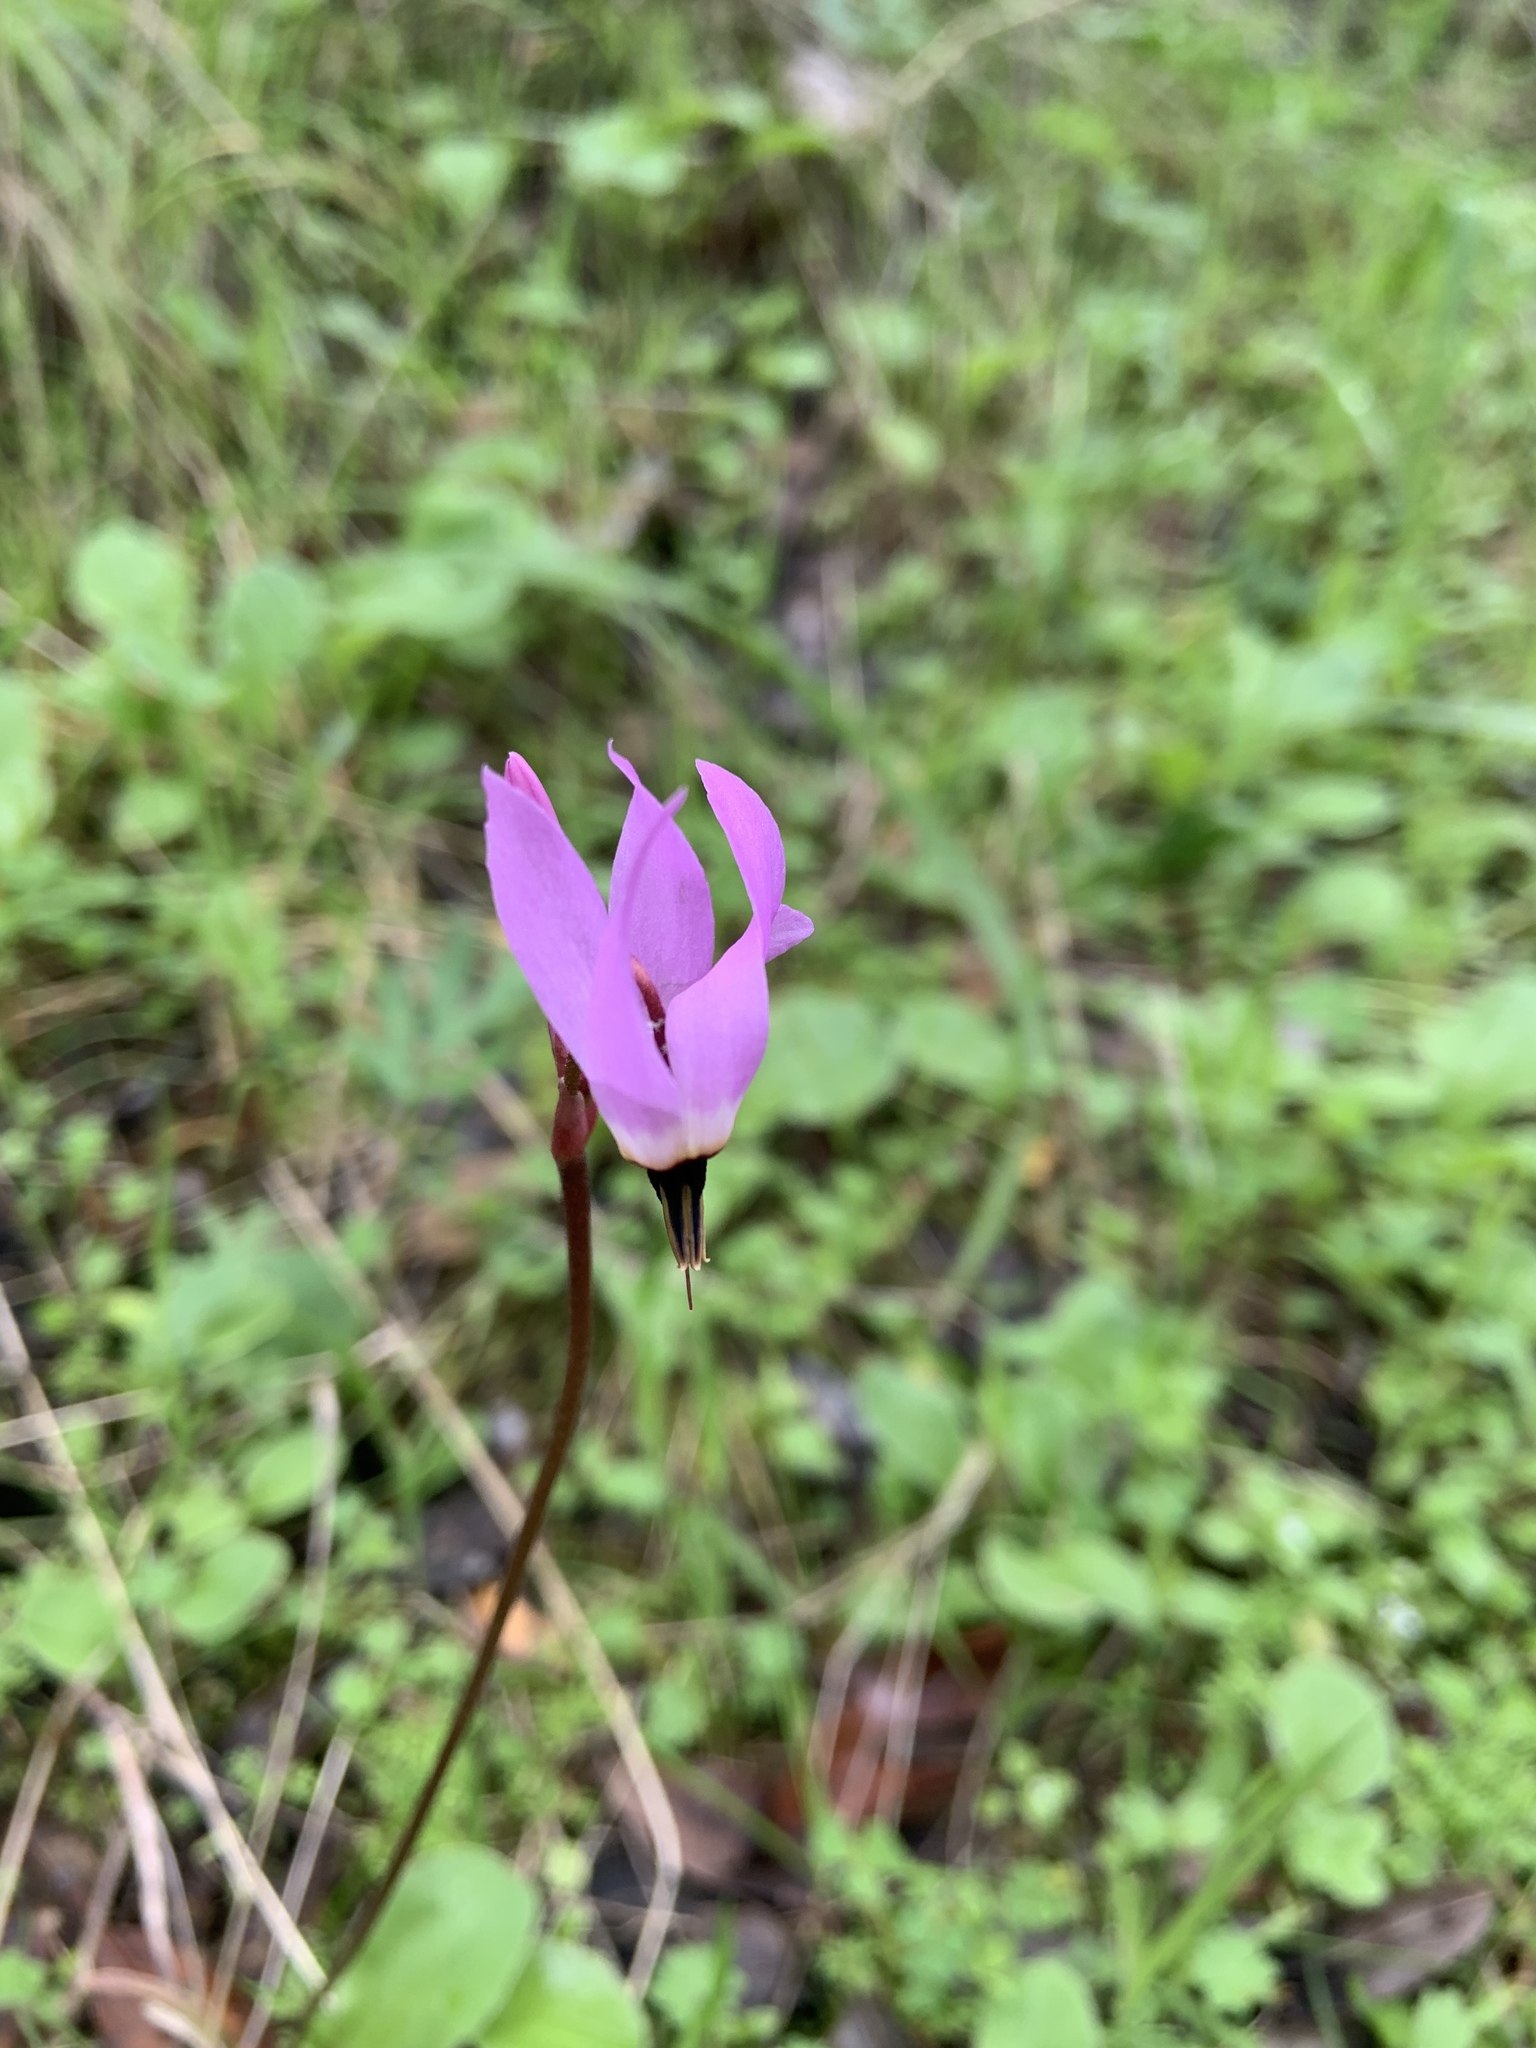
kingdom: Plantae
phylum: Tracheophyta
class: Magnoliopsida
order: Ericales
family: Primulaceae
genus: Dodecatheon
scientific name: Dodecatheon hendersonii
